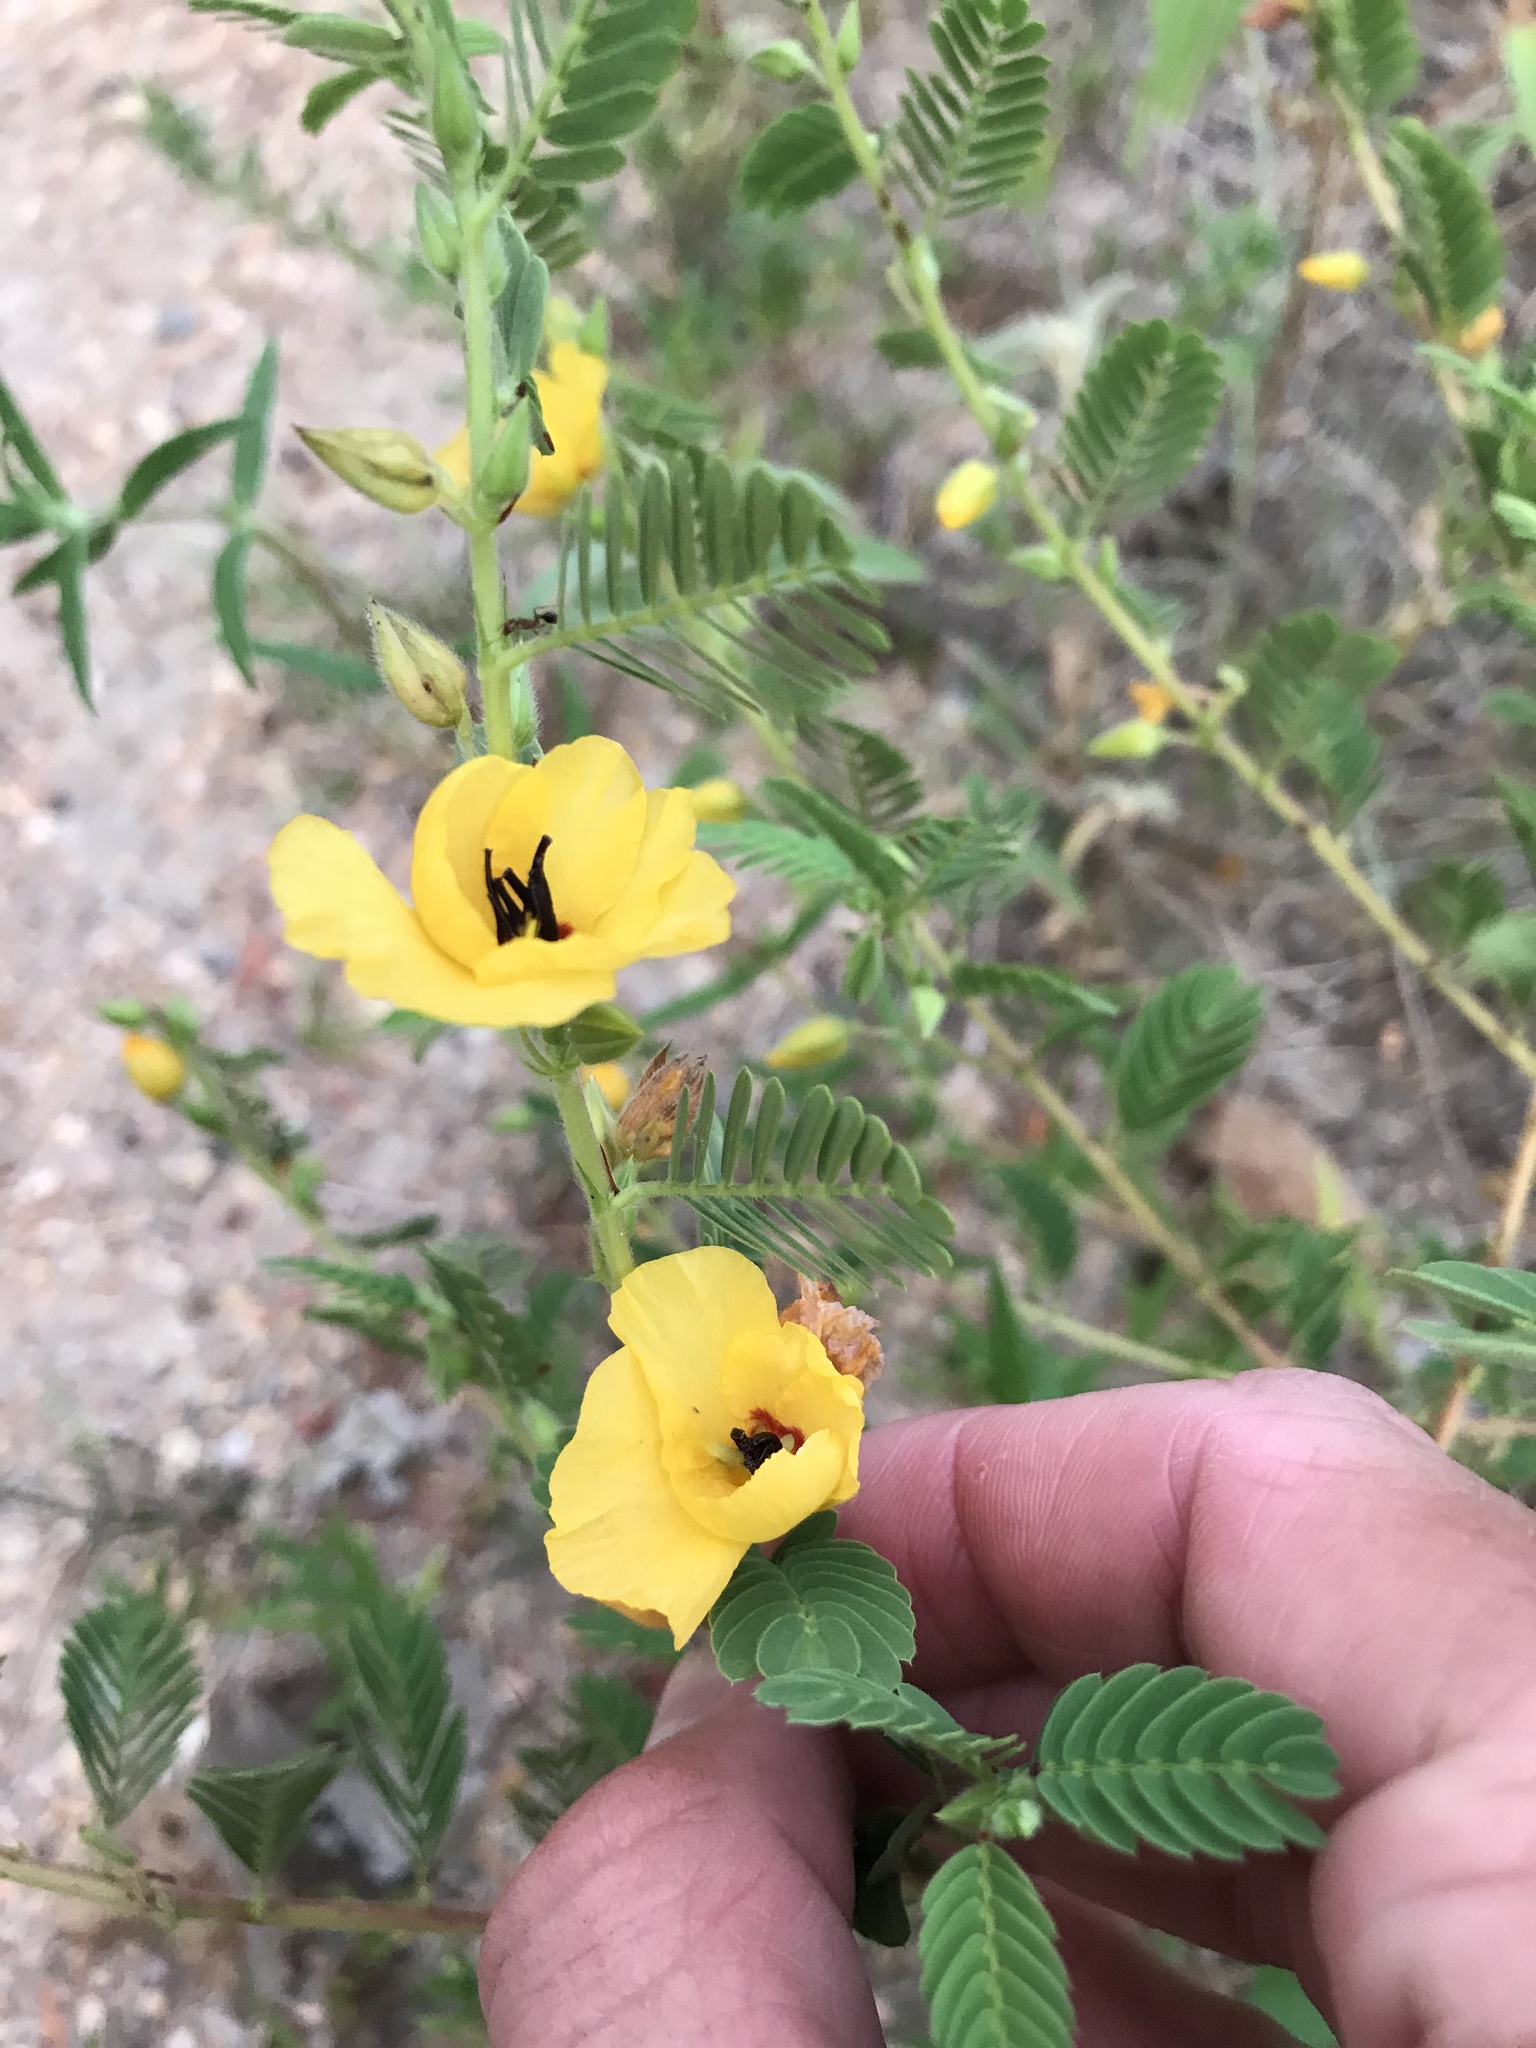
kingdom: Plantae
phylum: Tracheophyta
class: Magnoliopsida
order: Fabales
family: Fabaceae
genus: Chamaecrista
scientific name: Chamaecrista fasciculata
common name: Golden cassia
